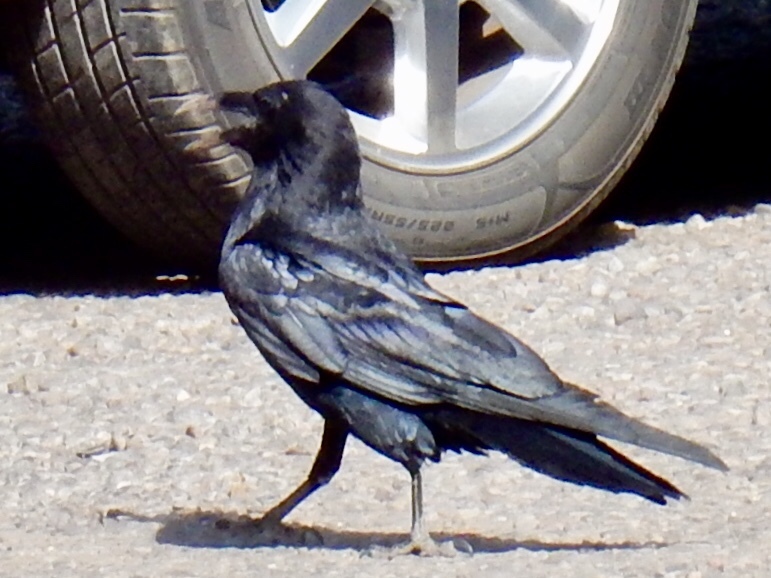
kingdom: Animalia
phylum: Chordata
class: Aves
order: Passeriformes
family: Corvidae
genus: Corvus
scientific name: Corvus corax
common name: Common raven
